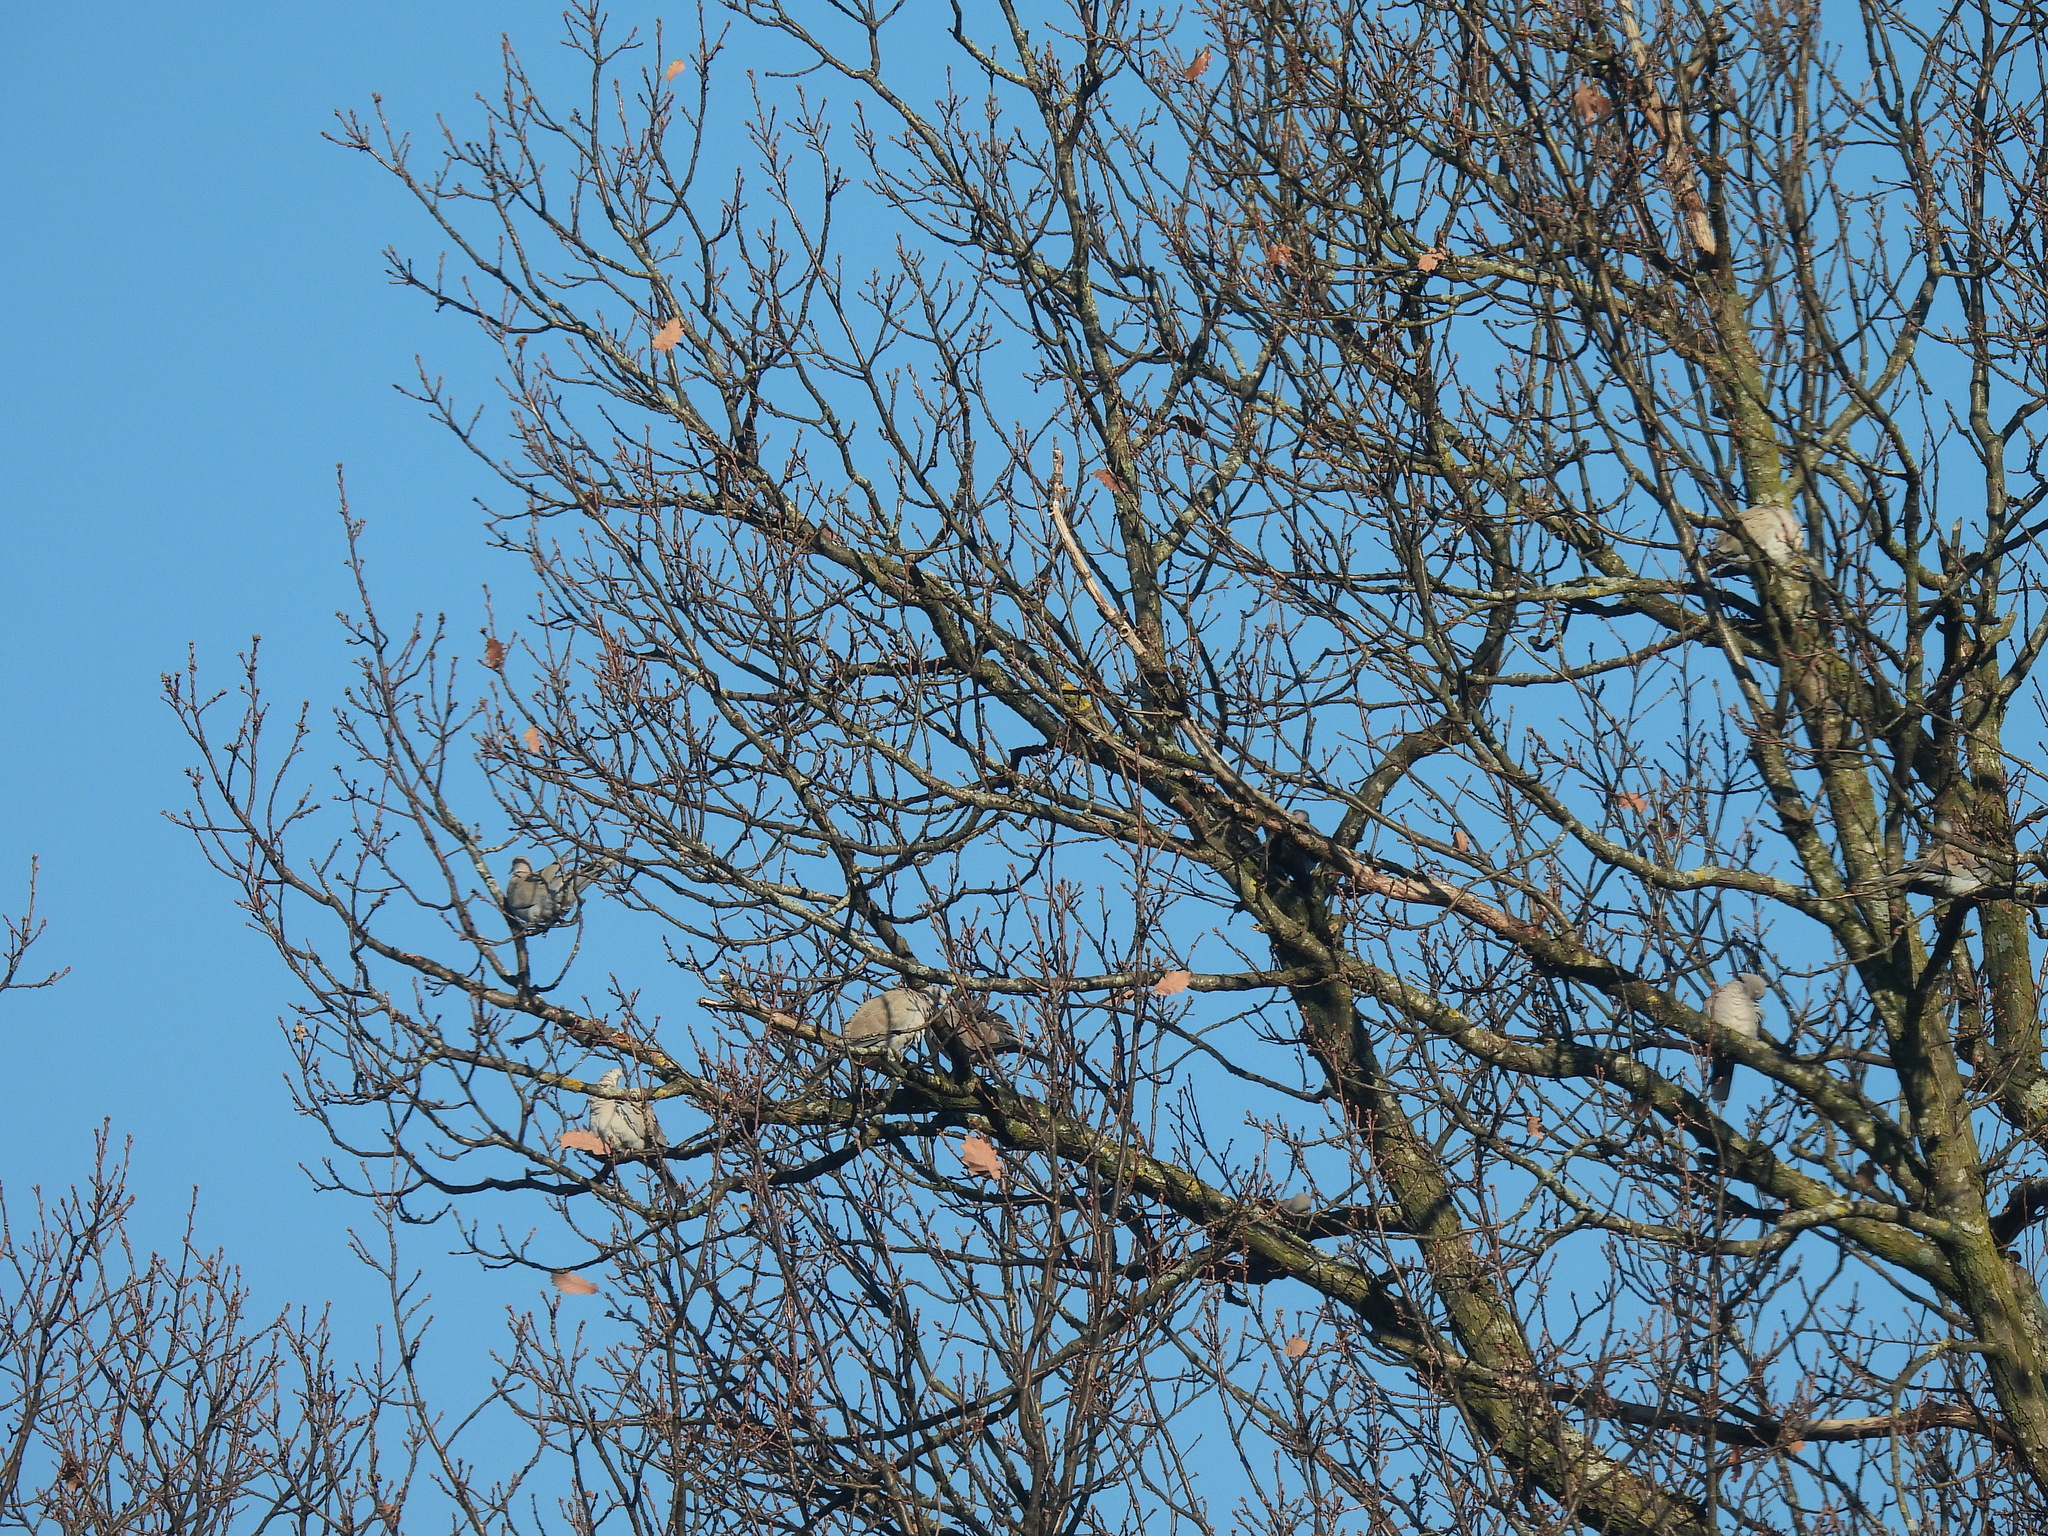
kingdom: Animalia
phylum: Chordata
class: Aves
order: Columbiformes
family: Columbidae
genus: Streptopelia
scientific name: Streptopelia decaocto
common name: Eurasian collared dove
